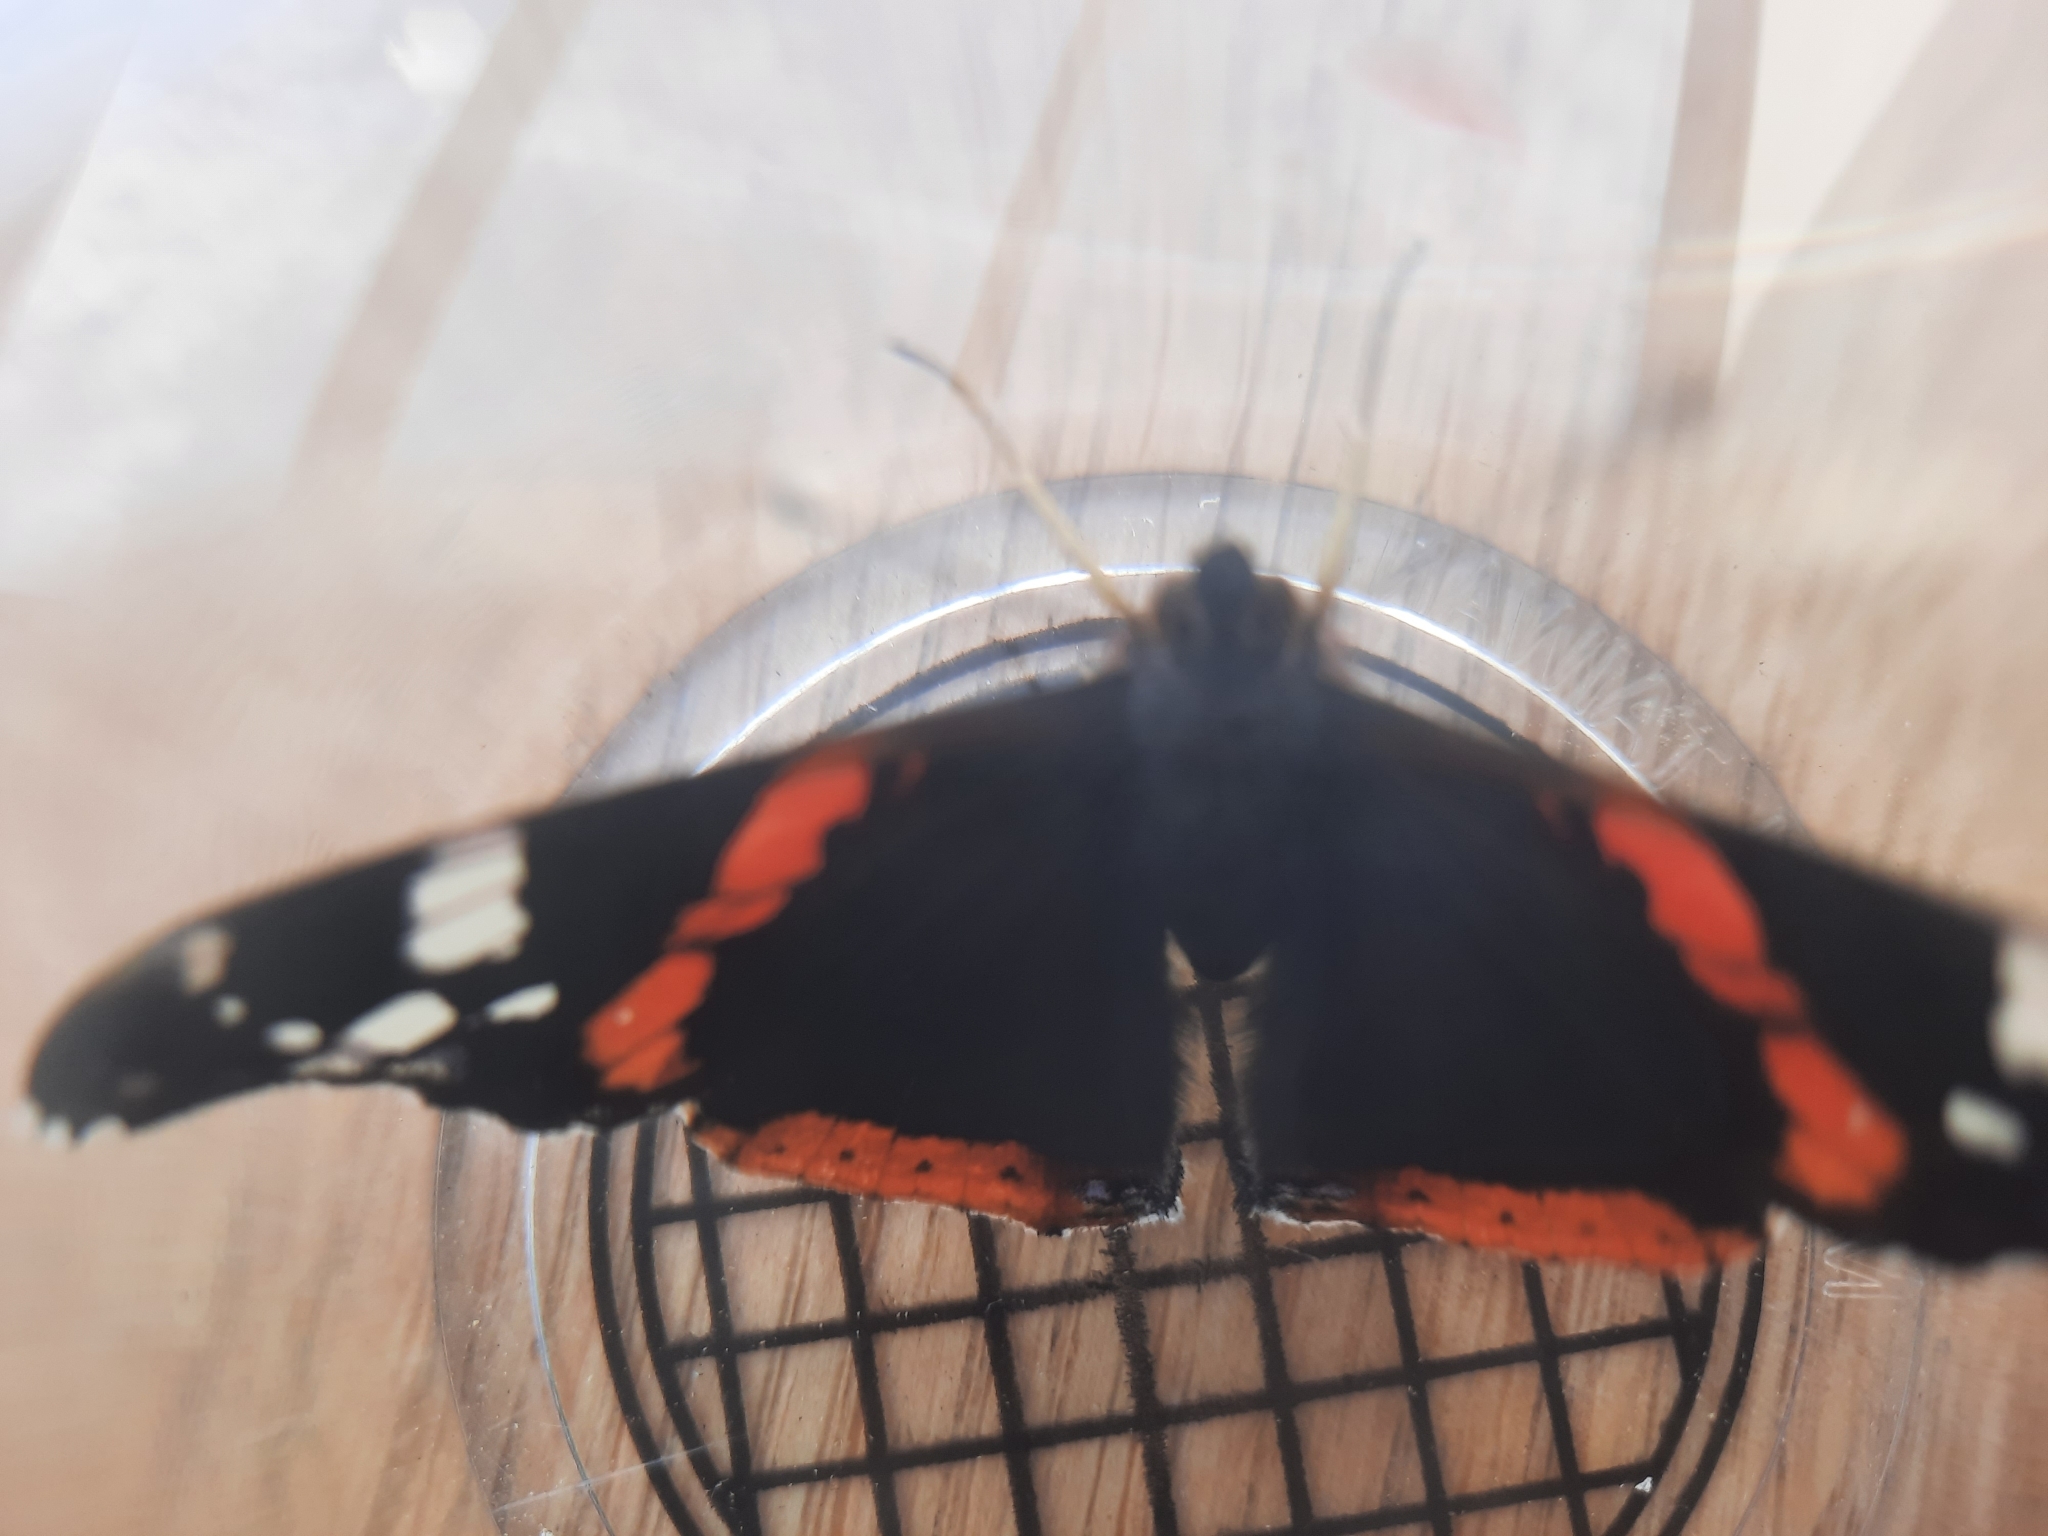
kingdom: Animalia
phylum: Arthropoda
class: Insecta
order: Lepidoptera
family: Nymphalidae
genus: Vanessa
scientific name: Vanessa atalanta
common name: Red admiral
